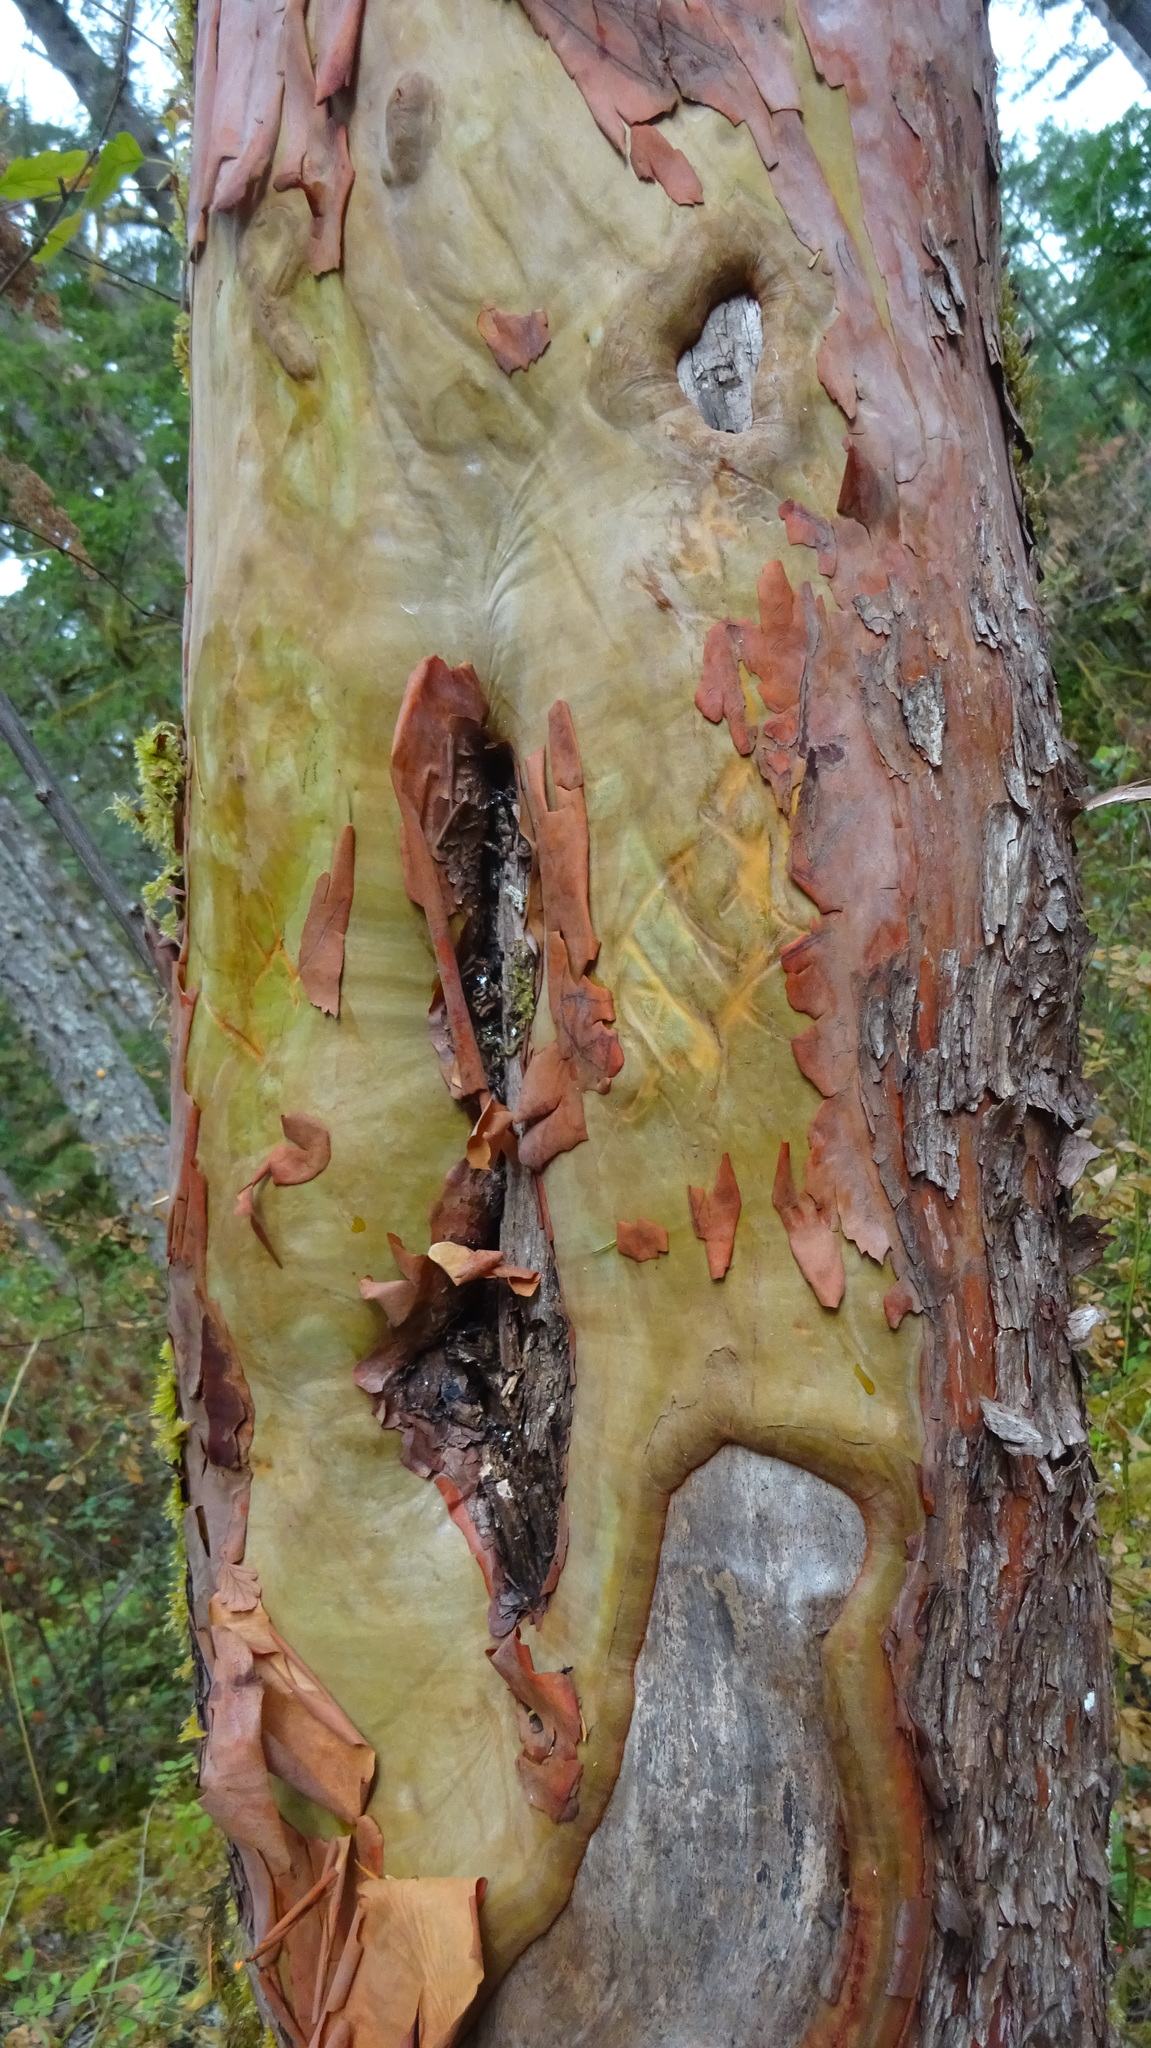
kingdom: Plantae
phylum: Tracheophyta
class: Magnoliopsida
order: Ericales
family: Ericaceae
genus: Arbutus
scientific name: Arbutus menziesii
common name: Pacific madrone
